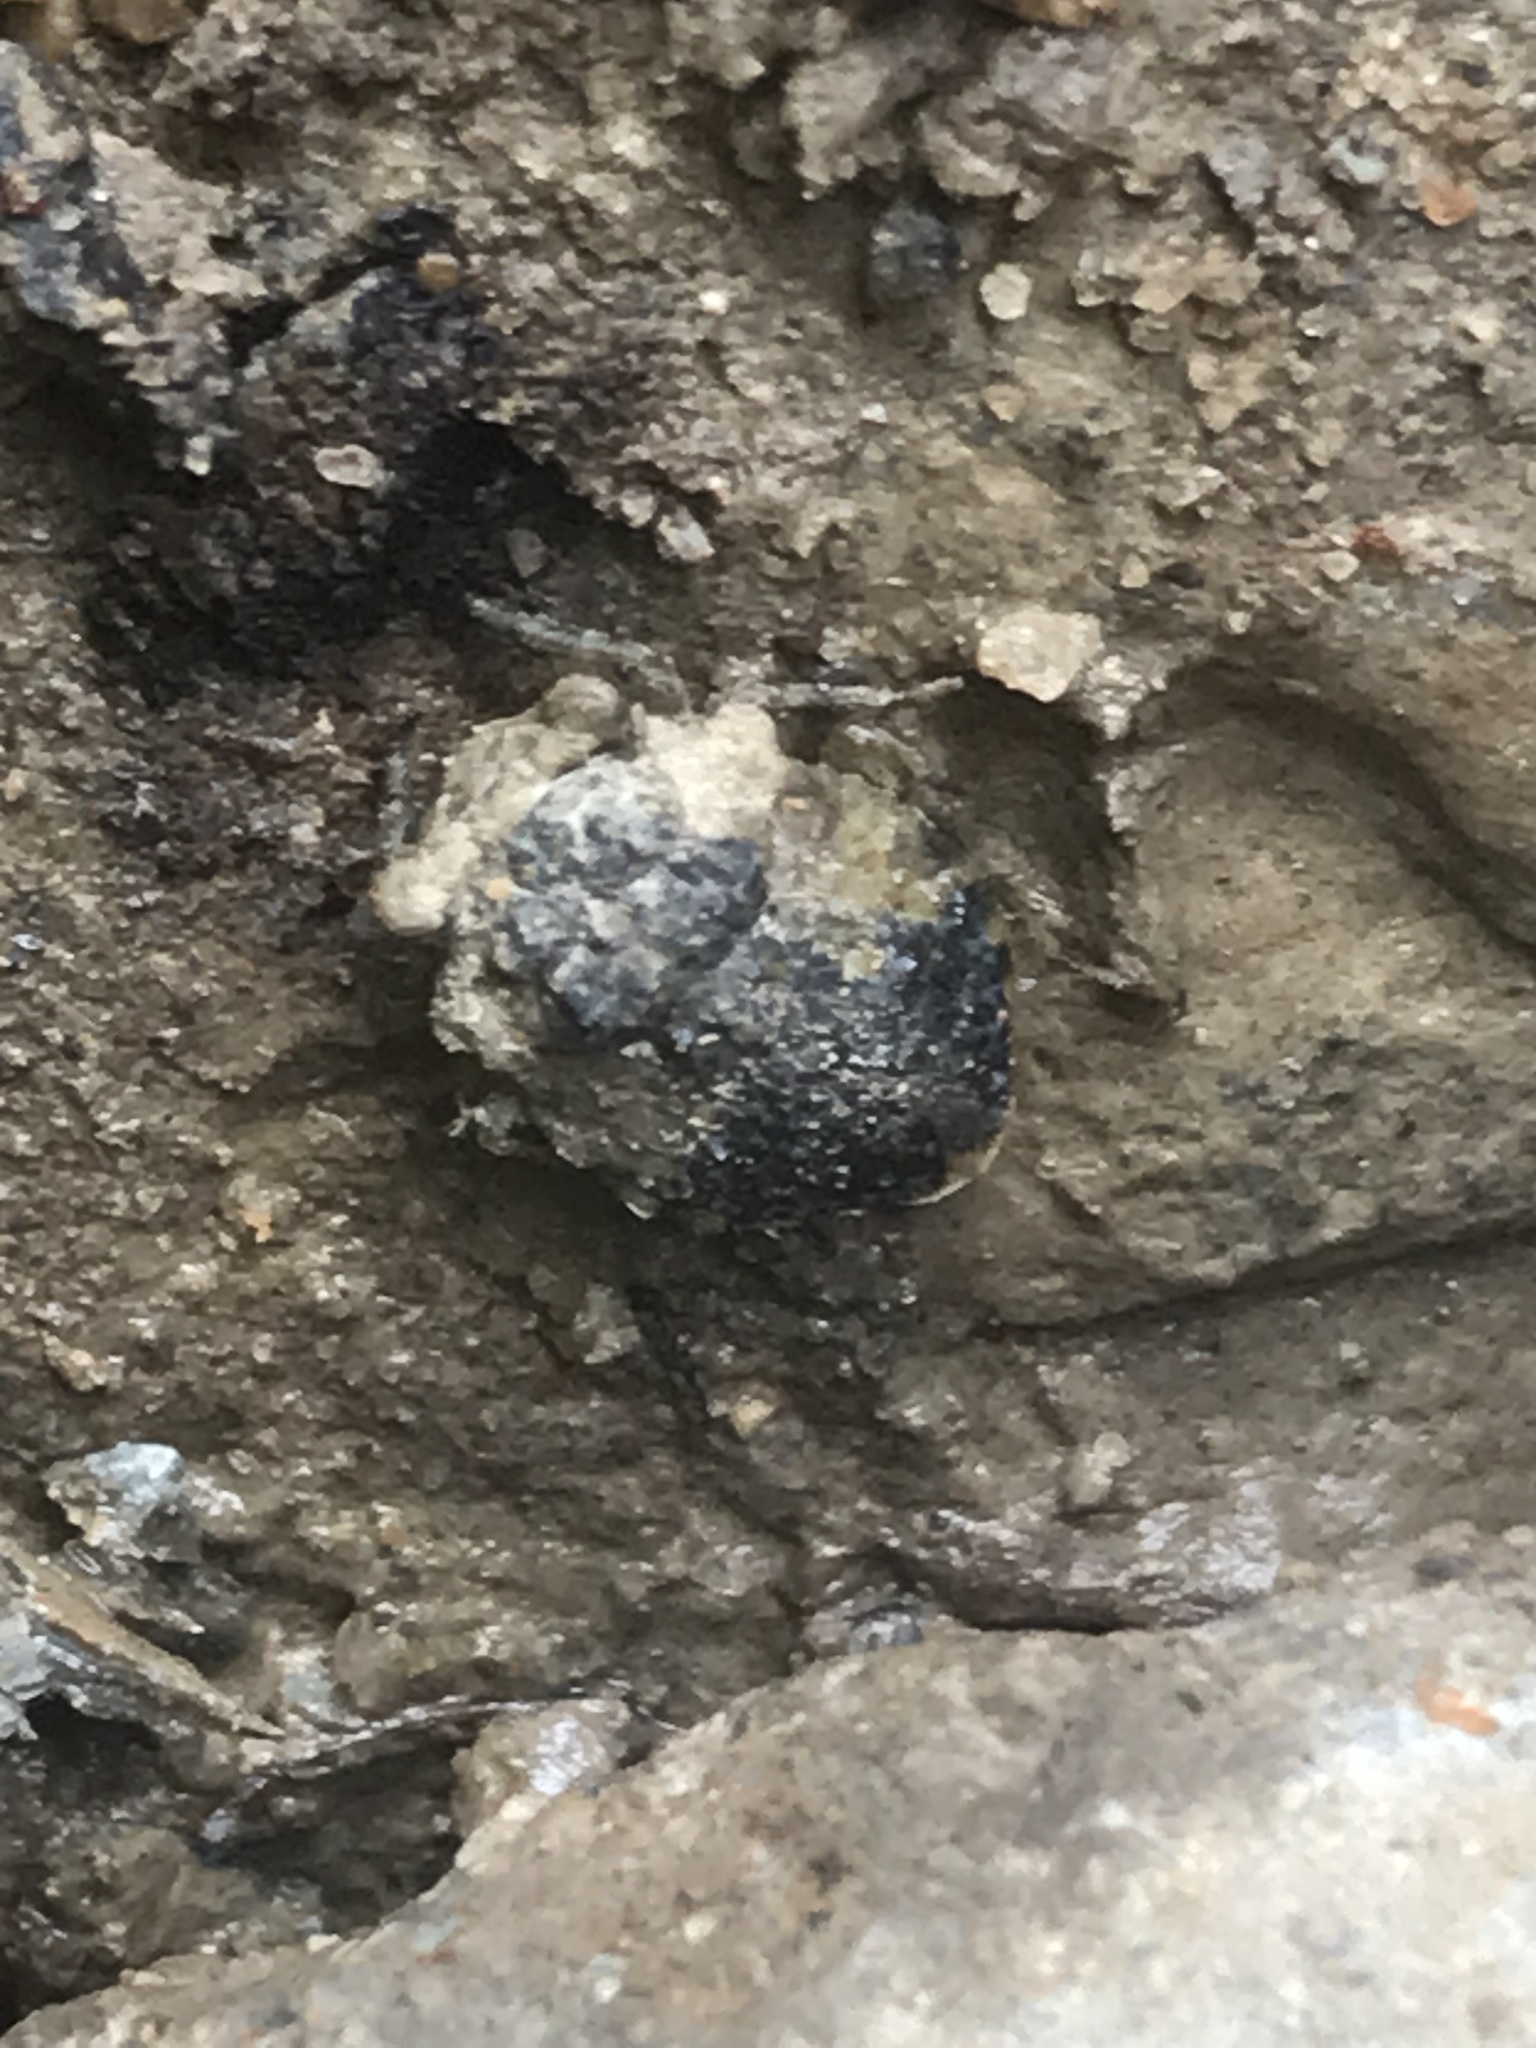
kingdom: Animalia
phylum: Arthropoda
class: Insecta
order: Hemiptera
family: Gelastocoridae
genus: Gelastocoris
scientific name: Gelastocoris oculatus
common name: Toad bug
